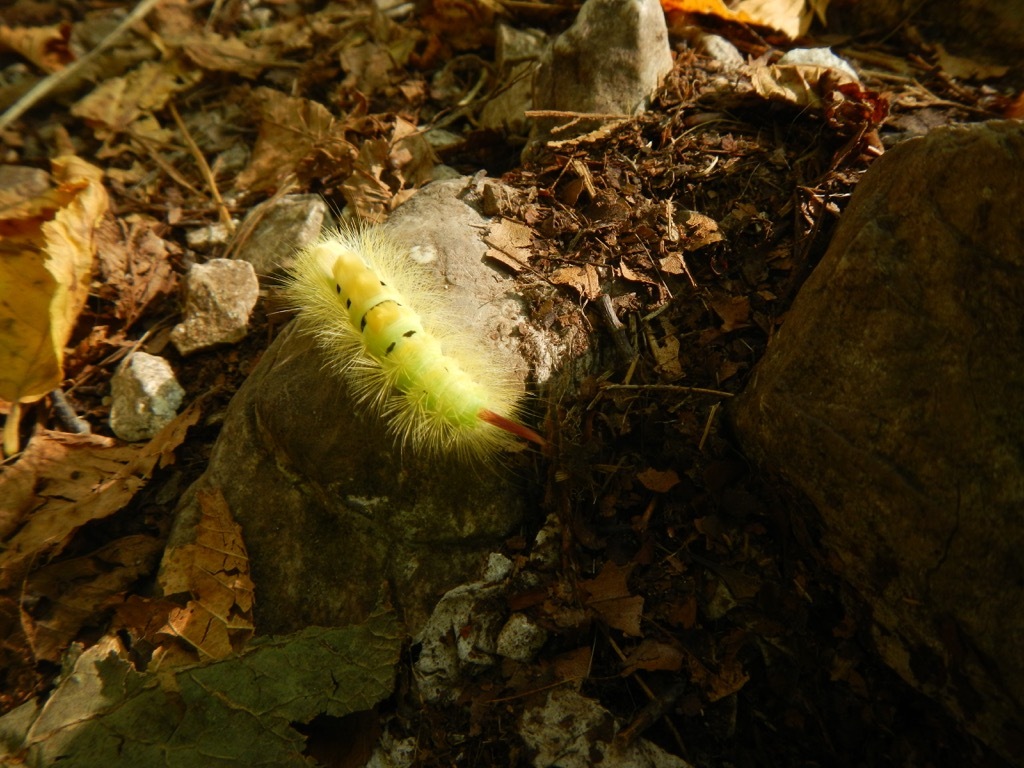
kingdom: Animalia
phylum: Arthropoda
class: Insecta
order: Lepidoptera
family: Erebidae
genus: Calliteara
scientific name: Calliteara pudibunda
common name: Pale tussock
